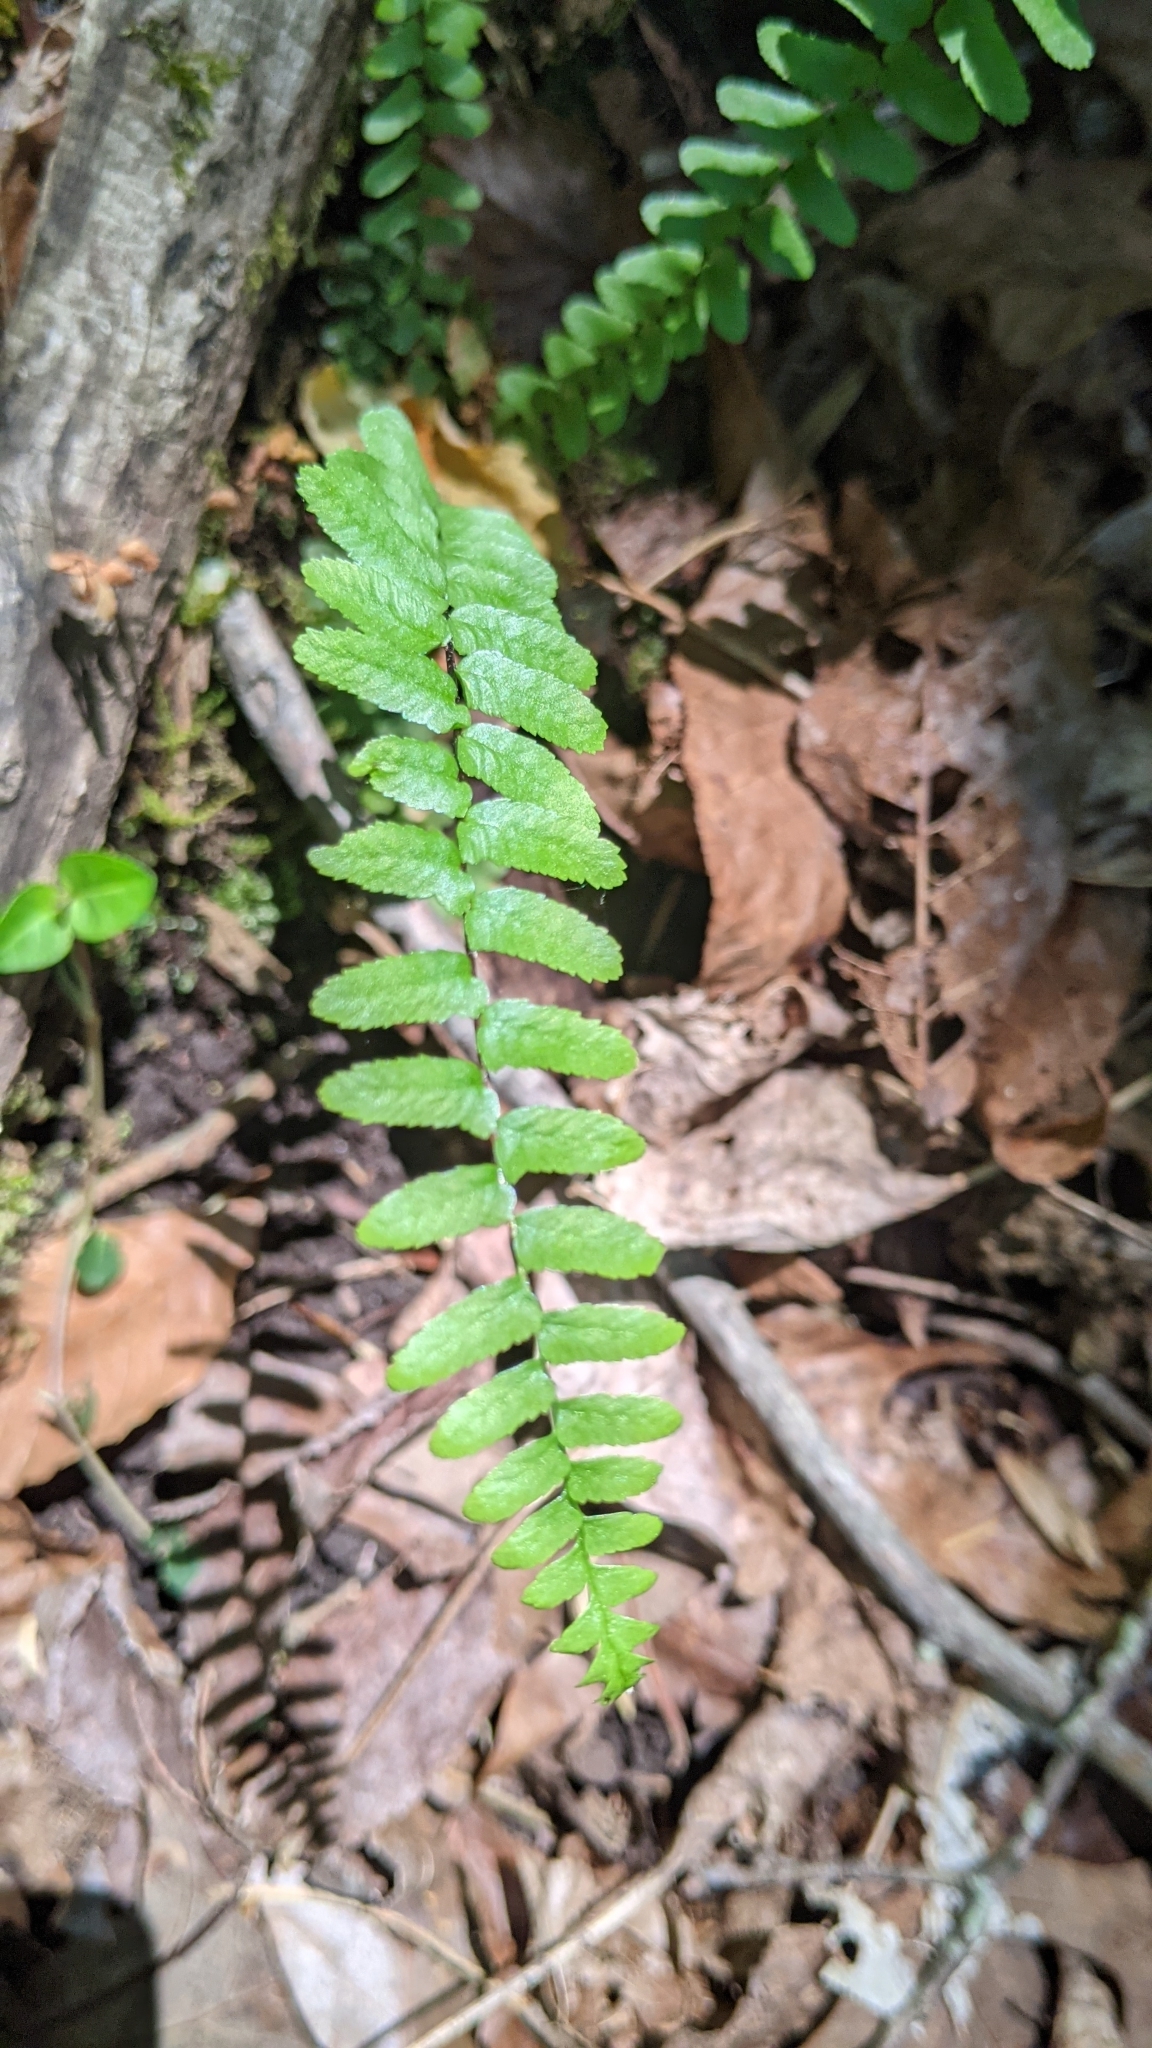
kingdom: Plantae
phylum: Tracheophyta
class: Polypodiopsida
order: Polypodiales
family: Aspleniaceae
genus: Asplenium
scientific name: Asplenium platyneuron
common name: Ebony spleenwort
